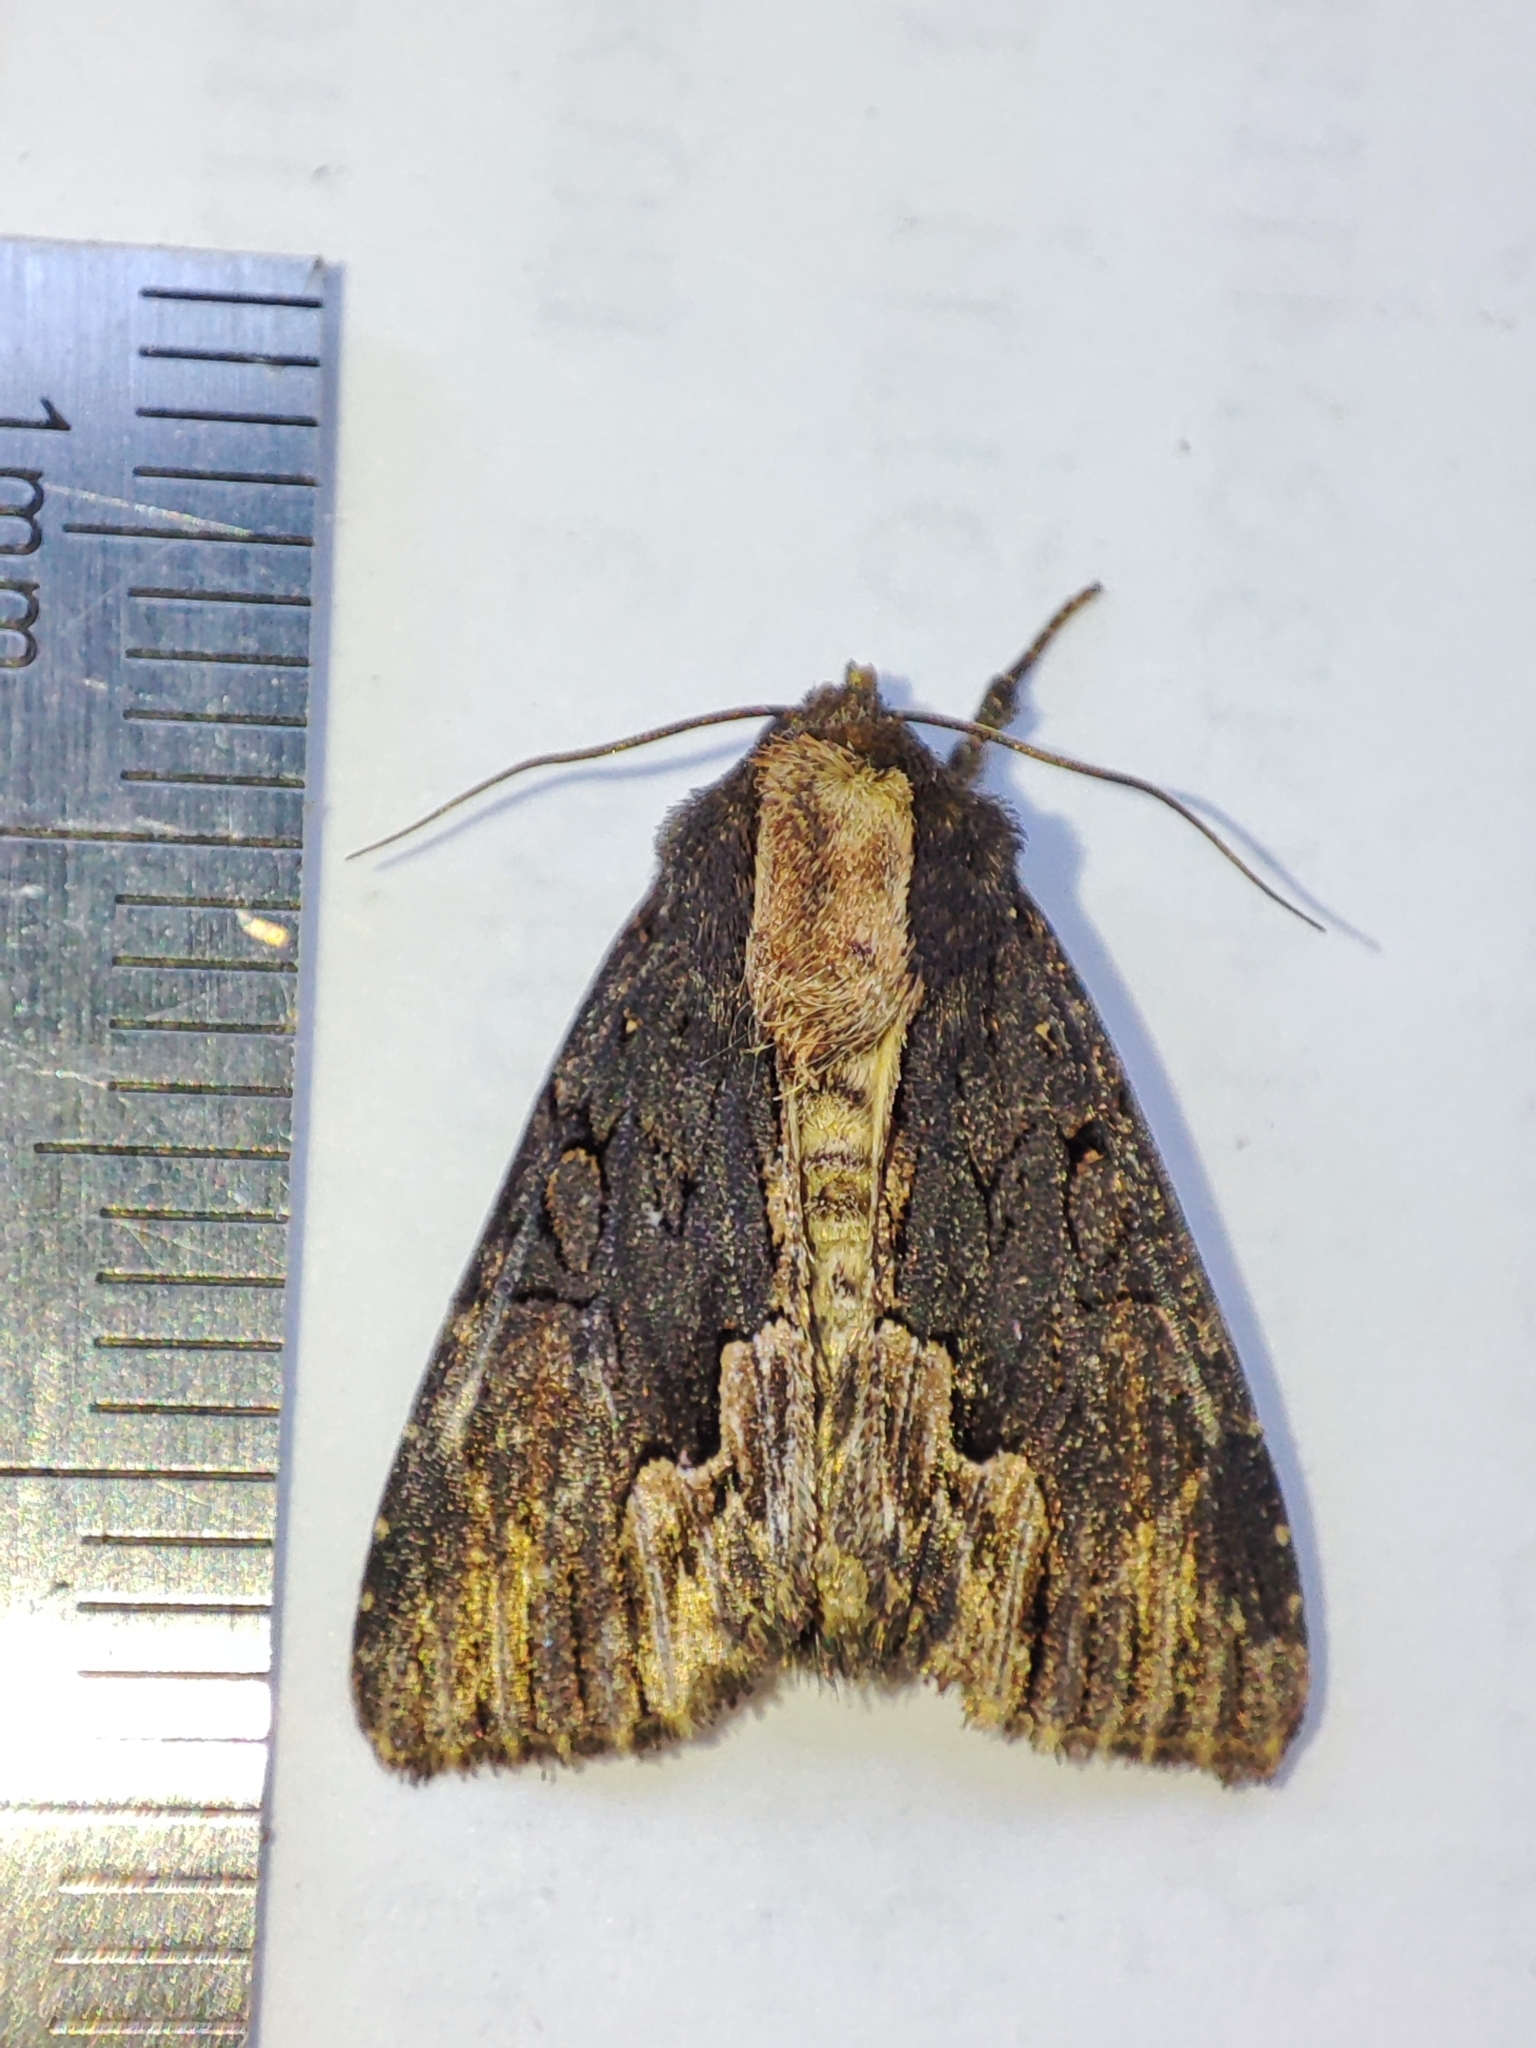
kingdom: Animalia
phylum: Arthropoda
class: Insecta
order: Lepidoptera
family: Noctuidae
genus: Dypterygia
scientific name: Dypterygia scabriuscula
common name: Bird's wing
